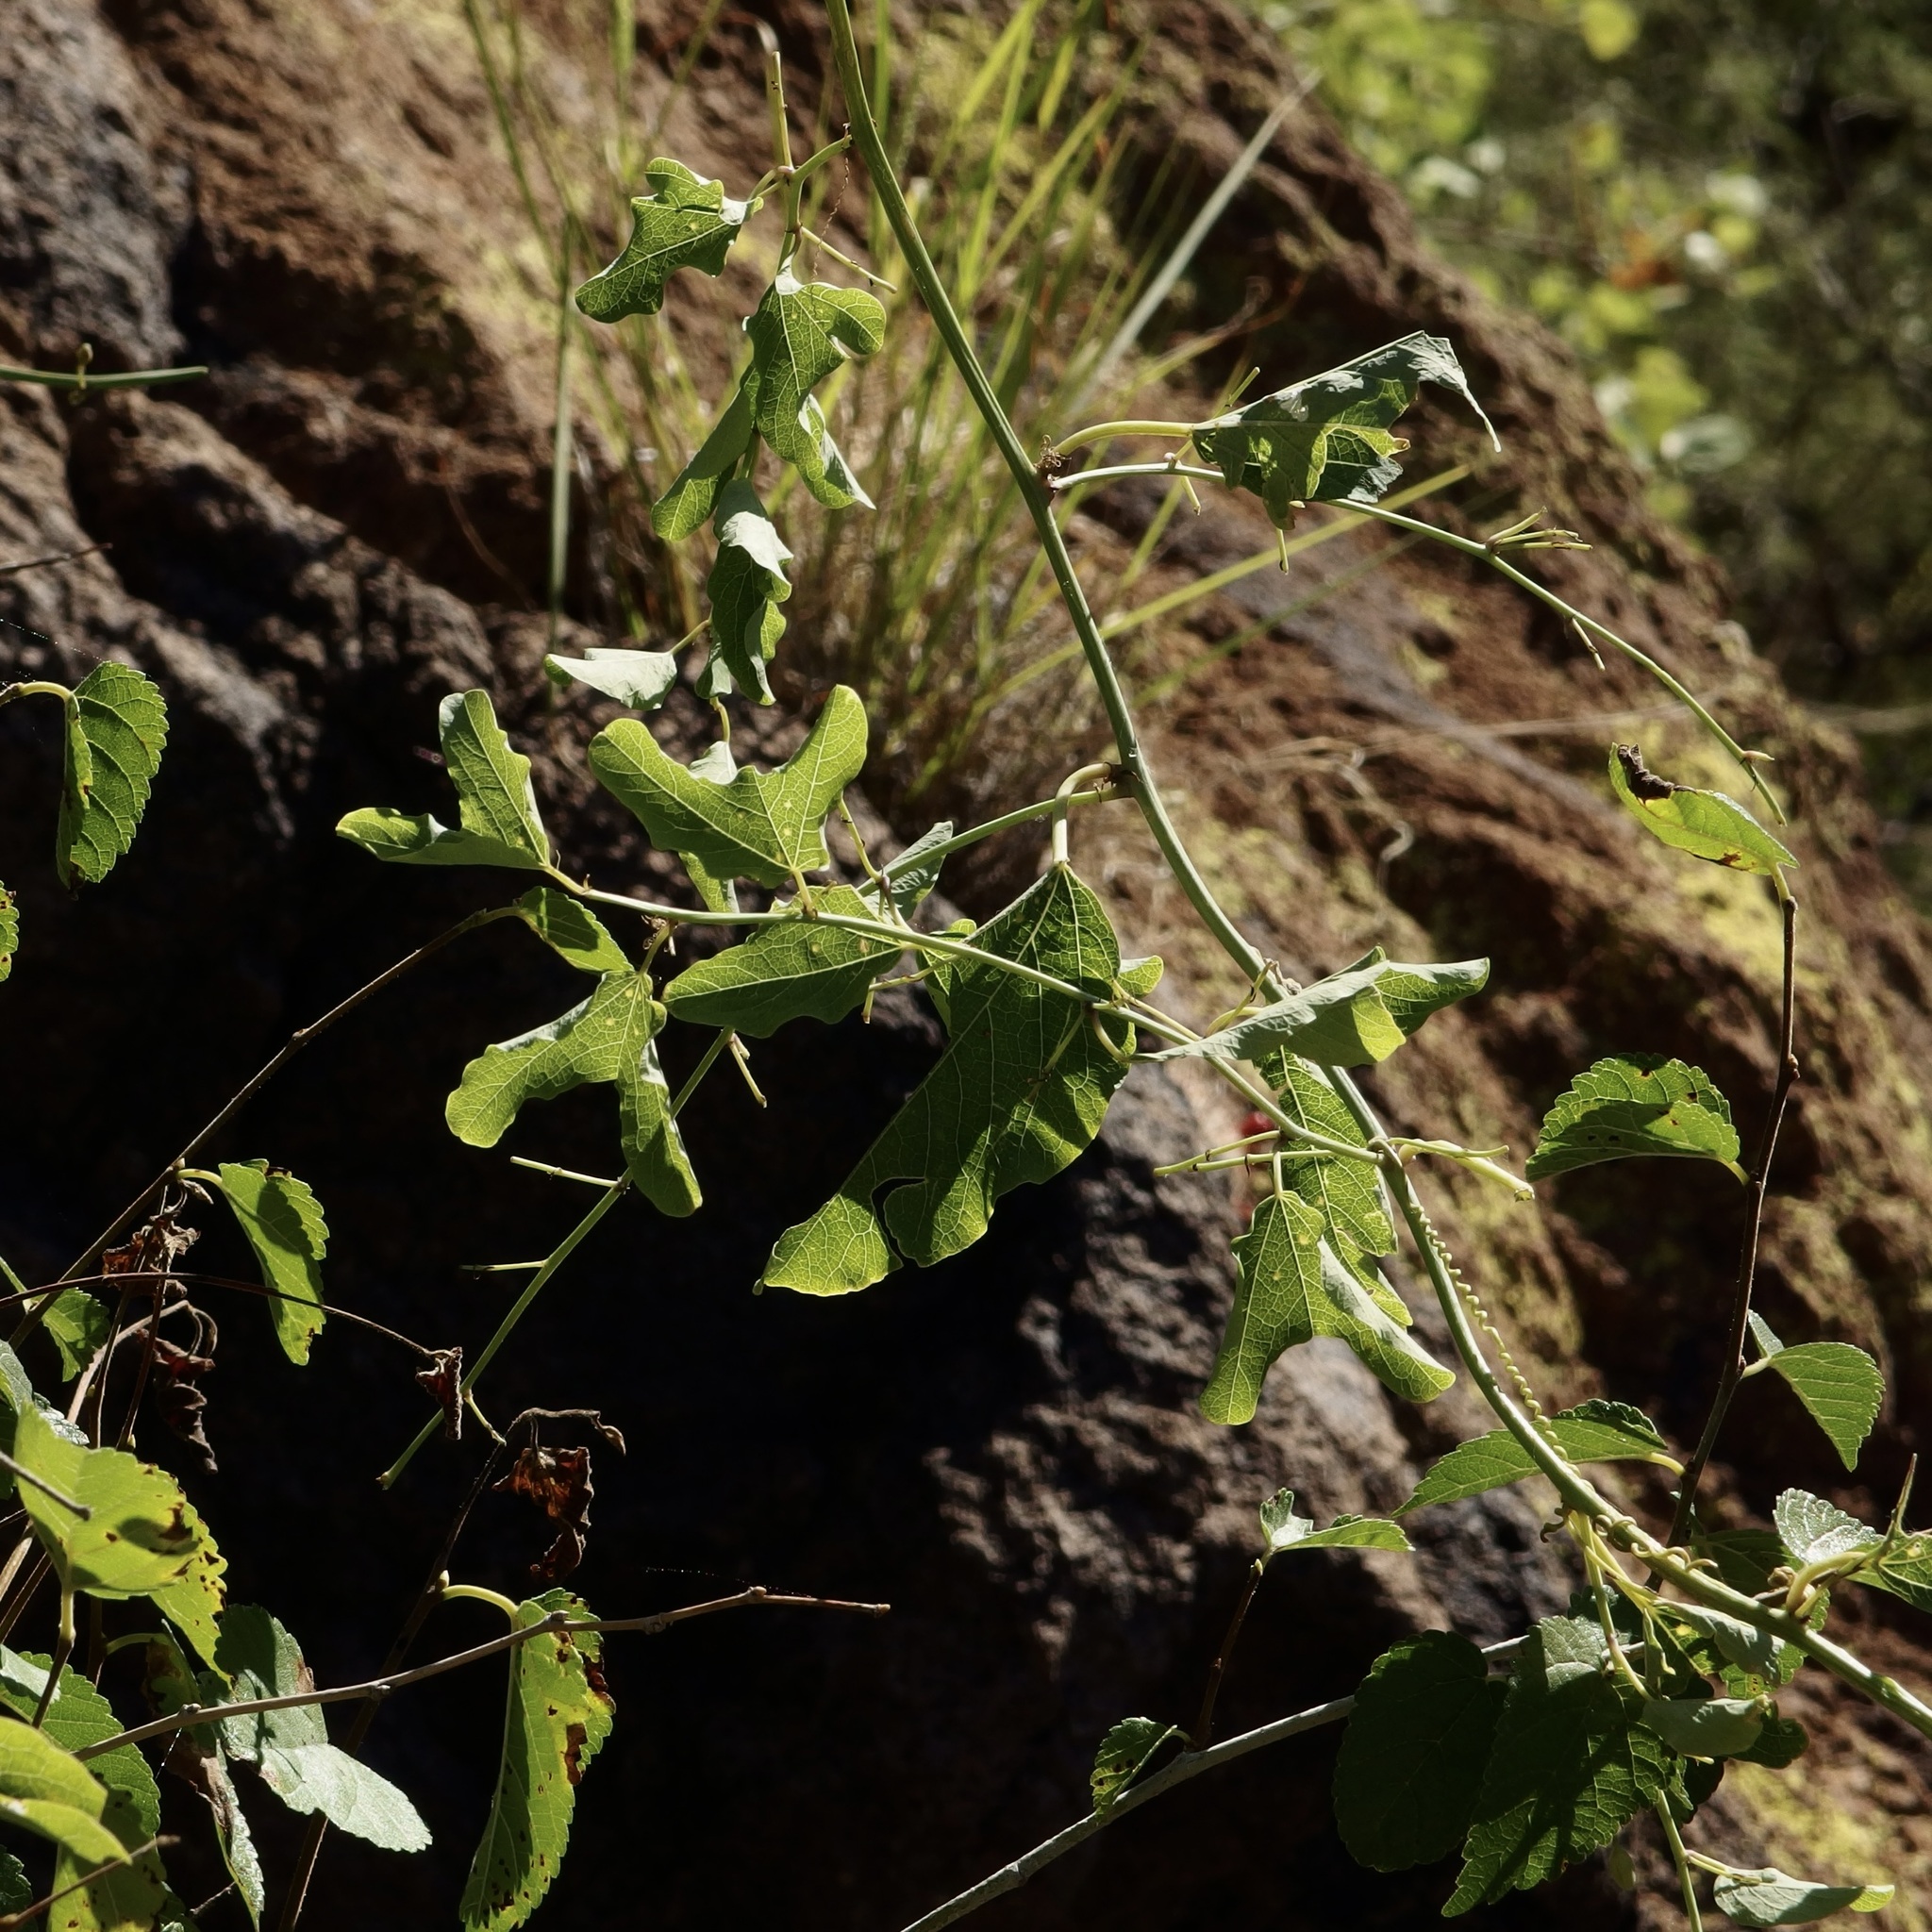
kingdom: Plantae
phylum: Tracheophyta
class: Magnoliopsida
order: Malpighiales
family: Passifloraceae
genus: Passiflora
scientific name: Passiflora mexicana
